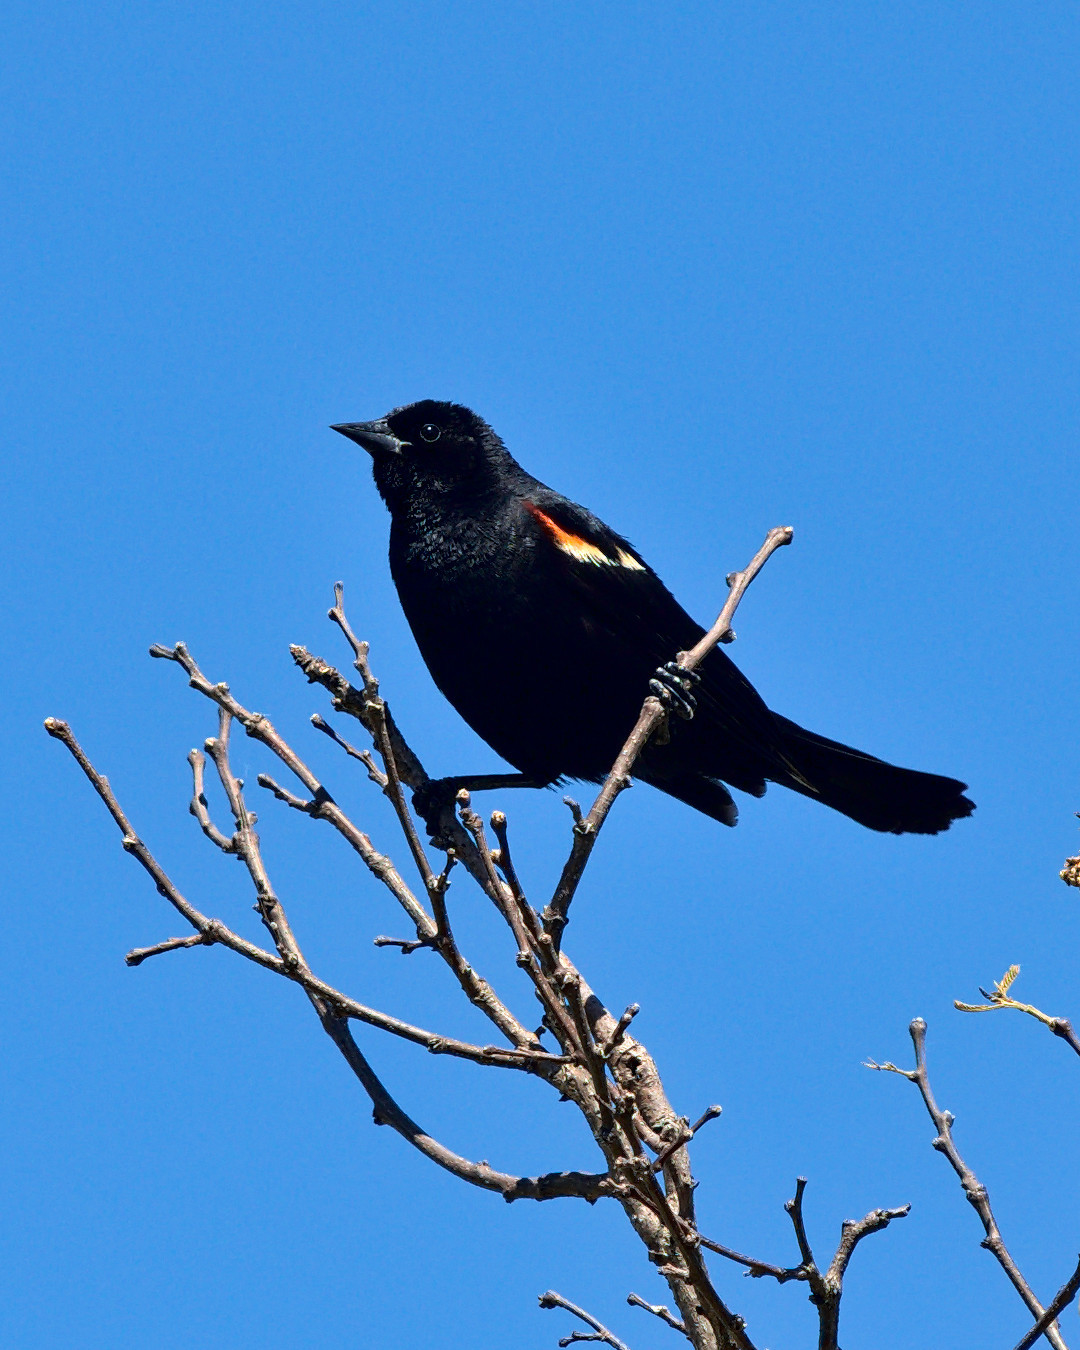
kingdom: Animalia
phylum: Chordata
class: Aves
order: Passeriformes
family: Icteridae
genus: Agelaius
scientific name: Agelaius phoeniceus
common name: Red-winged blackbird
